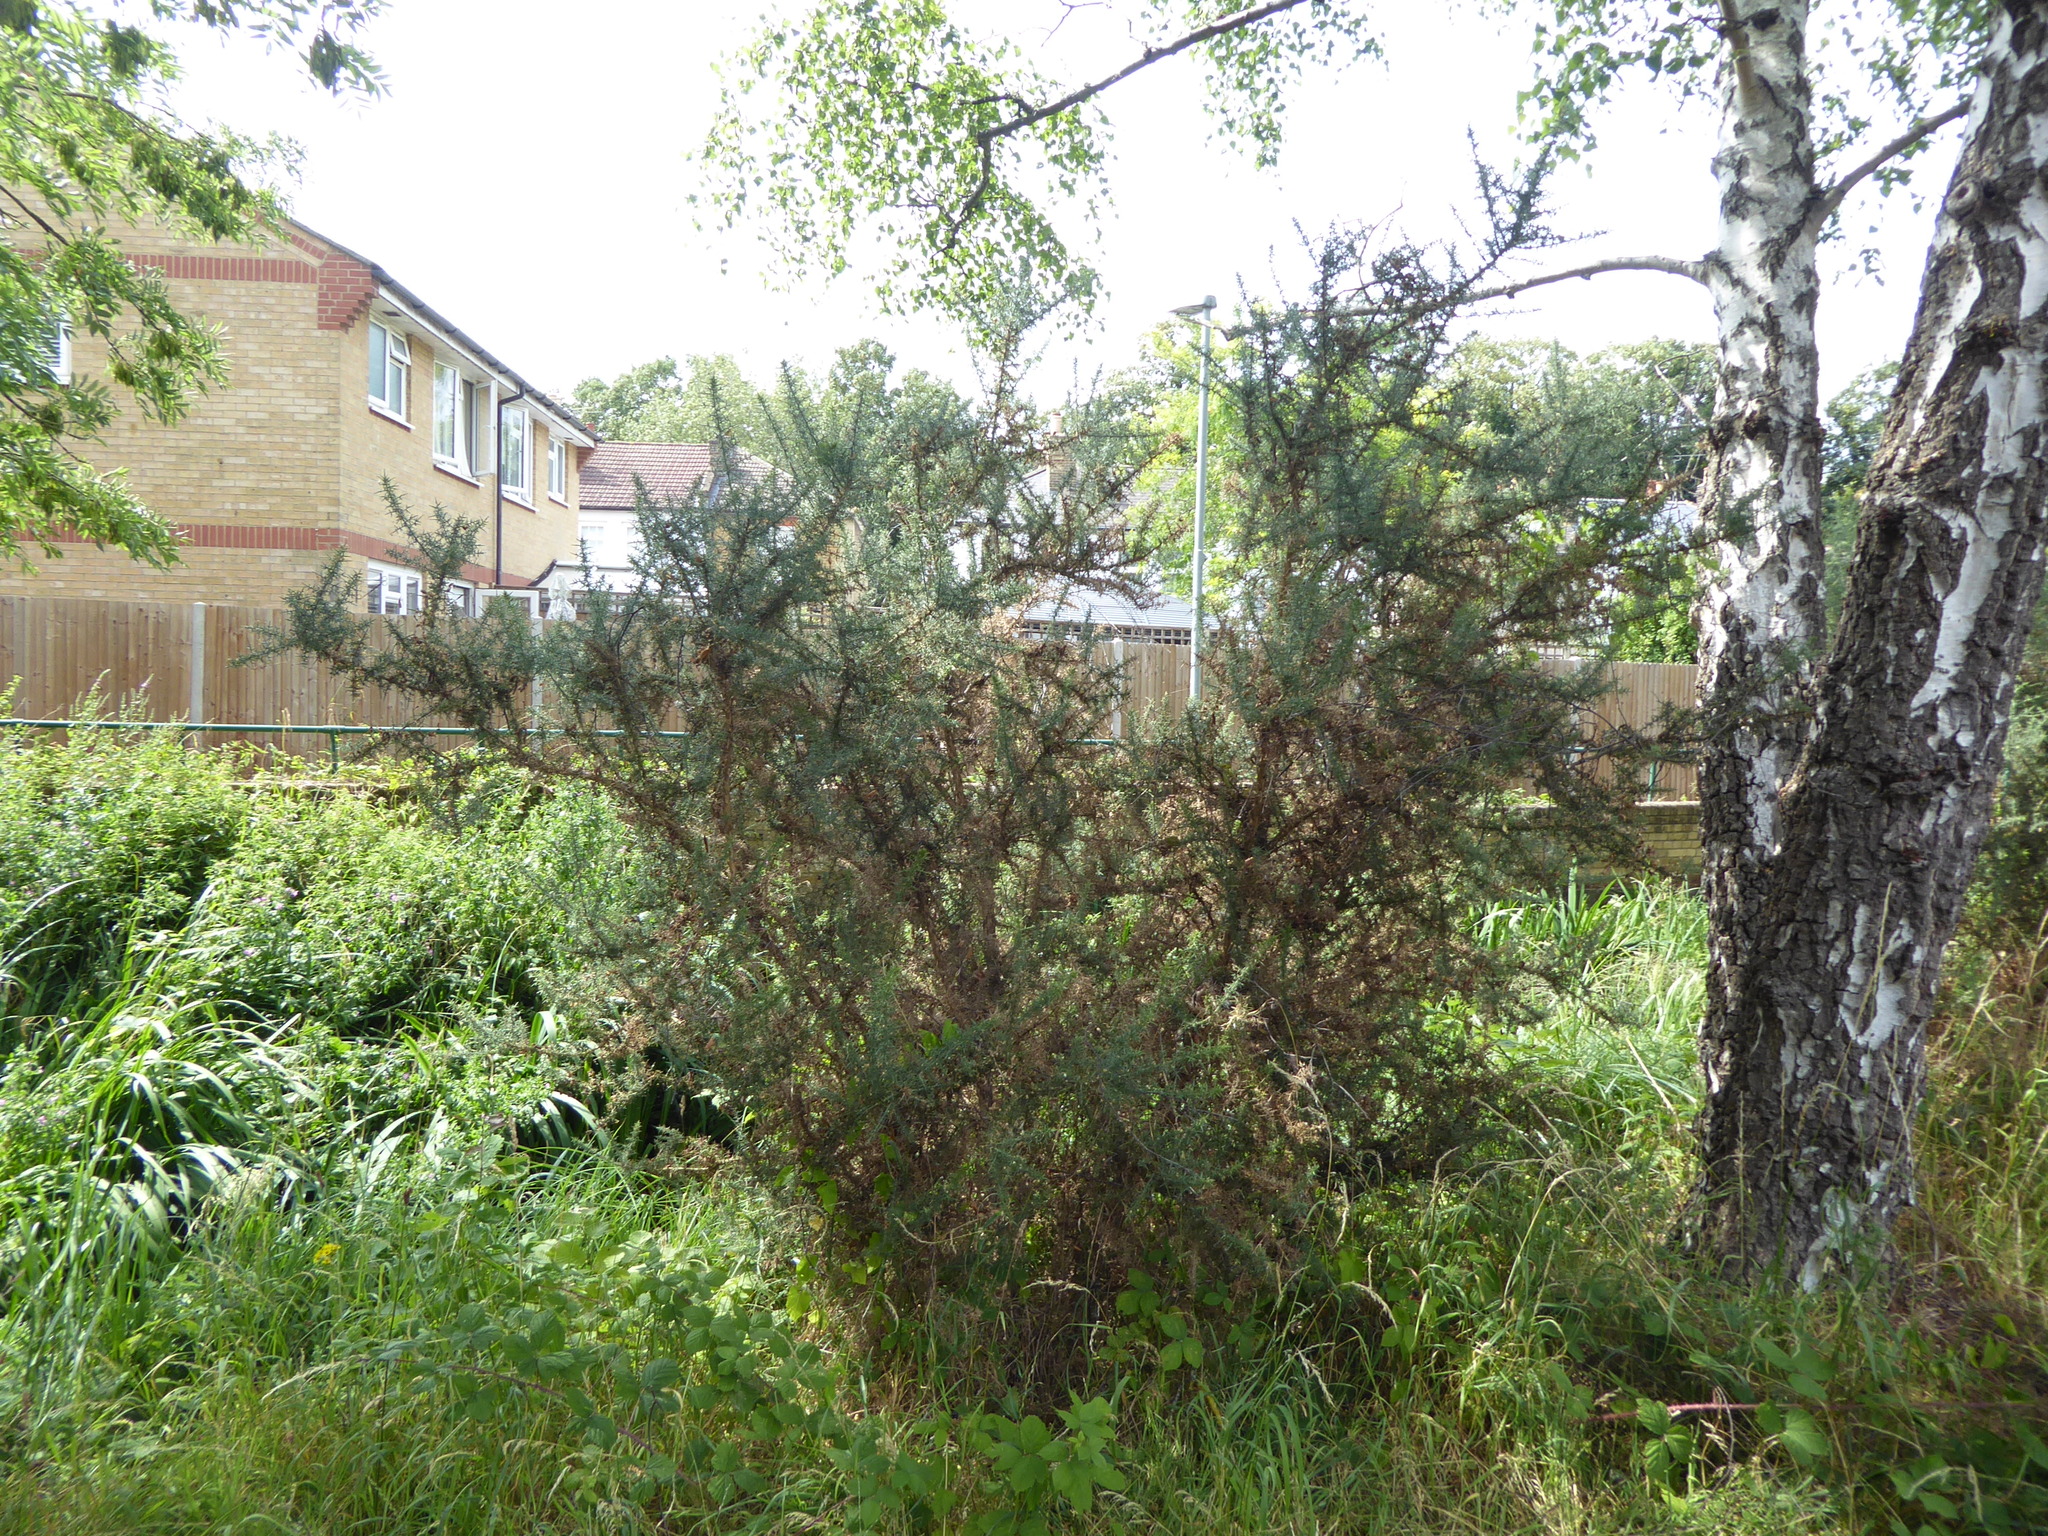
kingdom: Plantae
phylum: Tracheophyta
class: Magnoliopsida
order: Fabales
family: Fabaceae
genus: Ulex
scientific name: Ulex europaeus
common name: Common gorse
